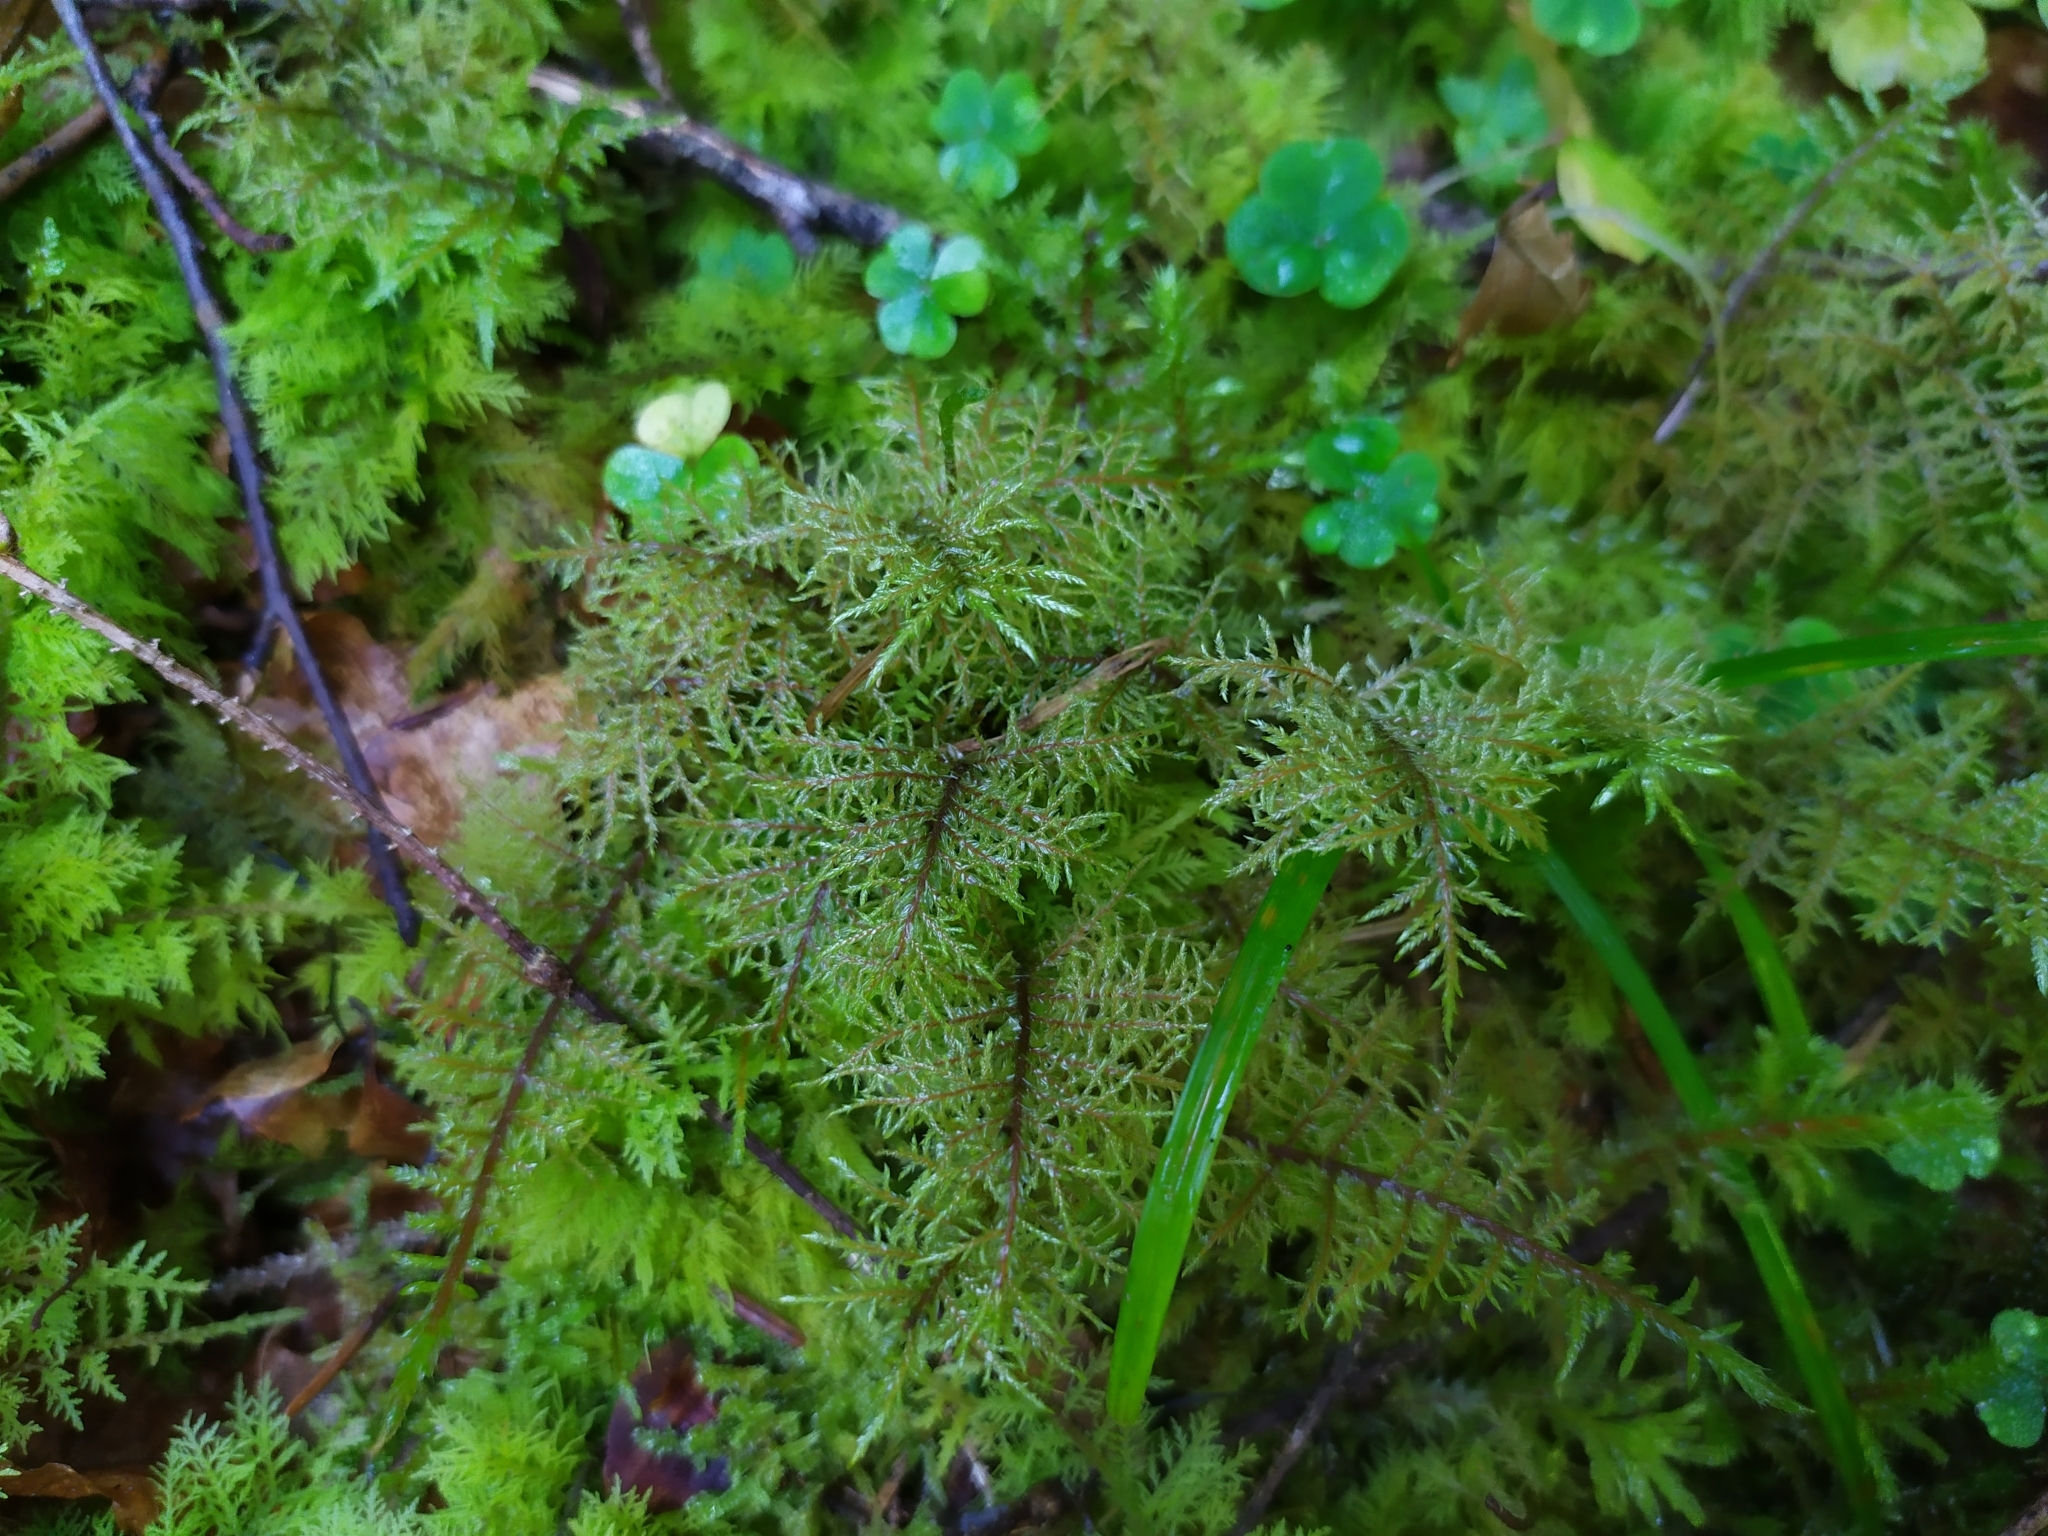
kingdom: Plantae
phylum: Bryophyta
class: Bryopsida
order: Hypnales
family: Hylocomiaceae
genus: Hylocomium
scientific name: Hylocomium splendens
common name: Stairstep moss
